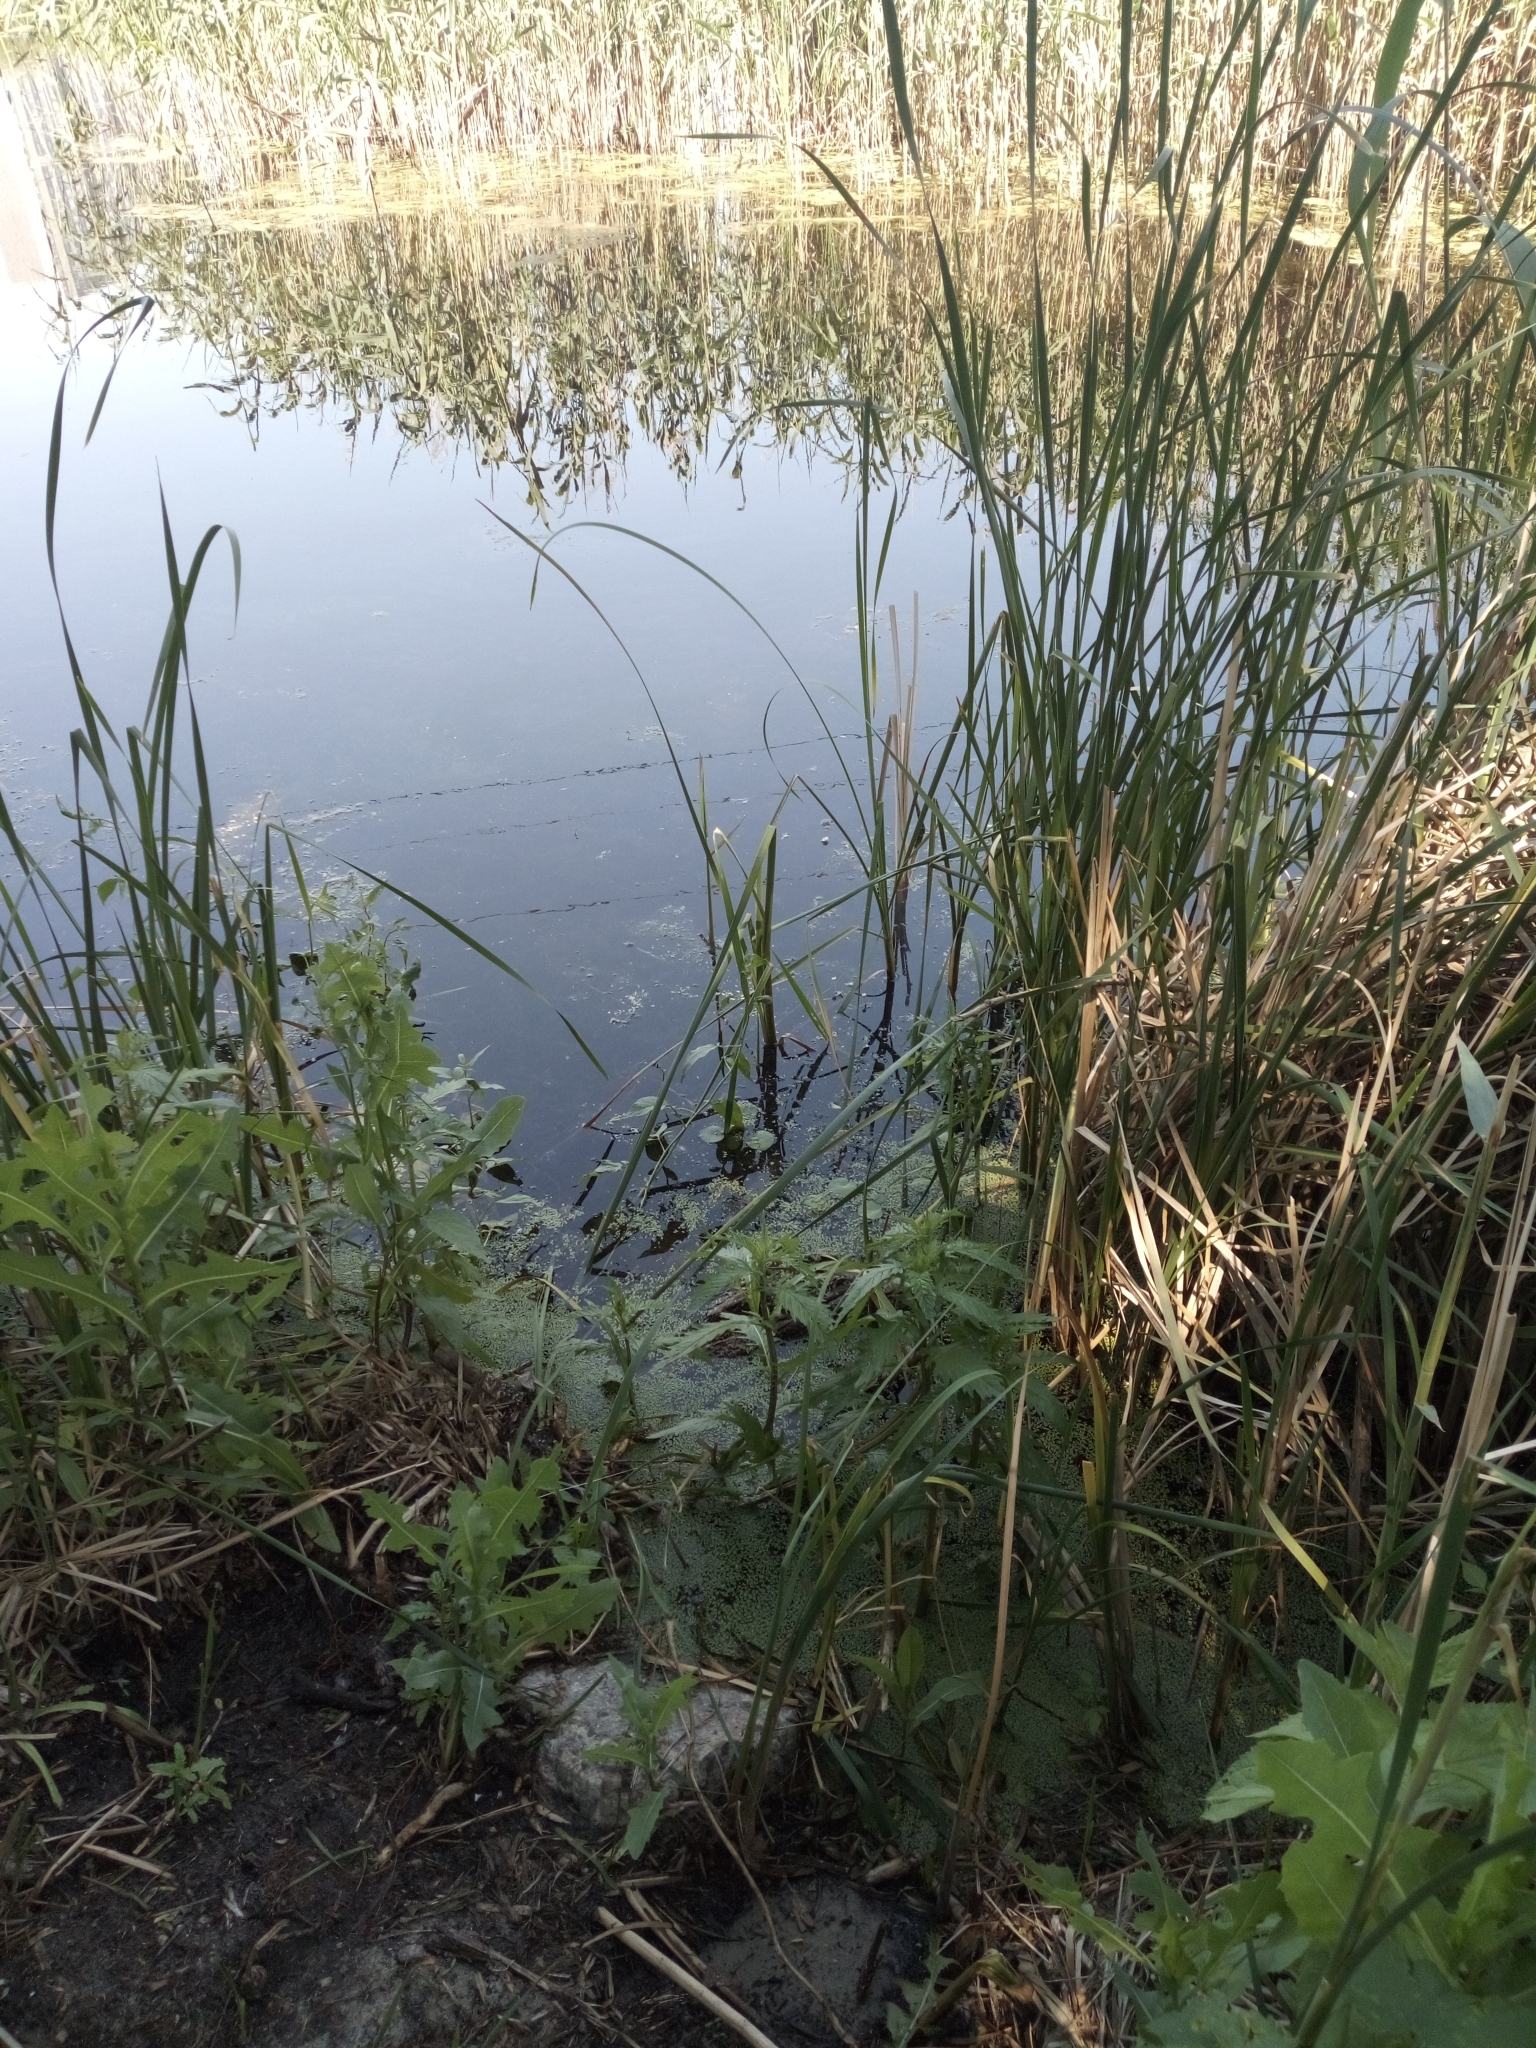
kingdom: Plantae
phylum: Tracheophyta
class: Liliopsida
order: Alismatales
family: Araceae
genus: Lemna
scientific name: Lemna minor
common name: Common duckweed
